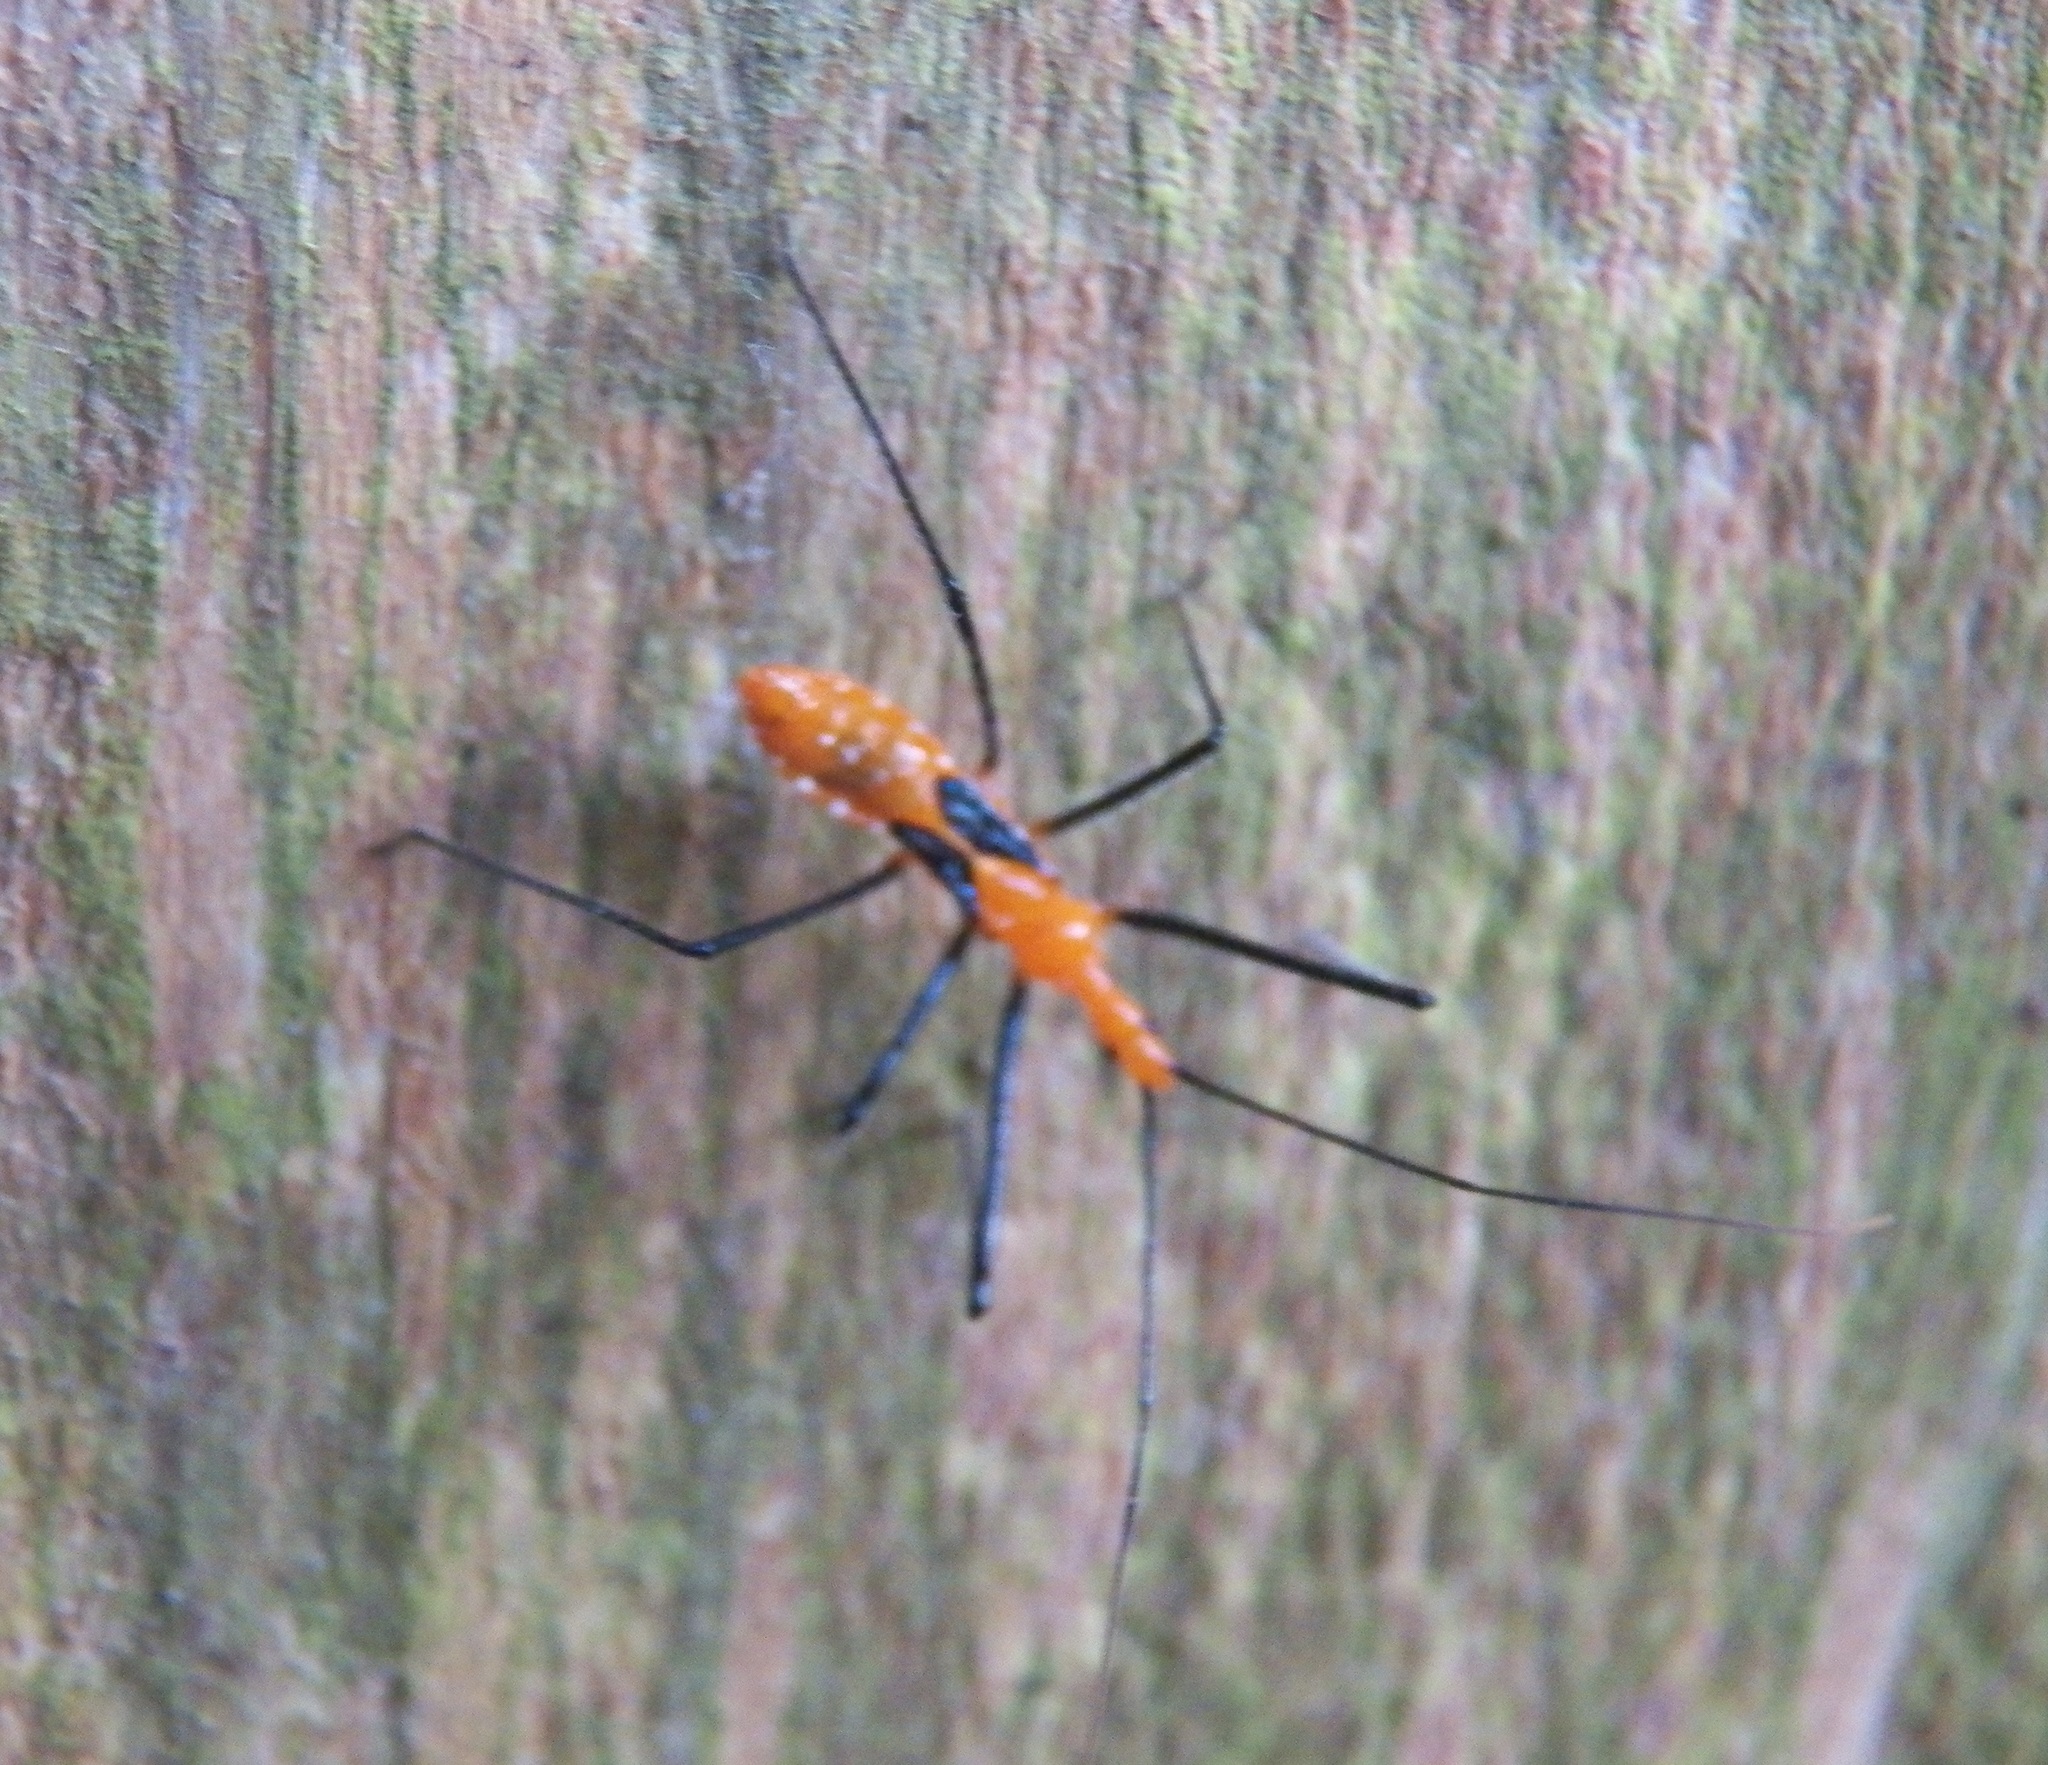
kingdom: Animalia
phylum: Arthropoda
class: Insecta
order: Hemiptera
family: Reduviidae
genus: Zelus
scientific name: Zelus longipes
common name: Milkweed assassin bug
